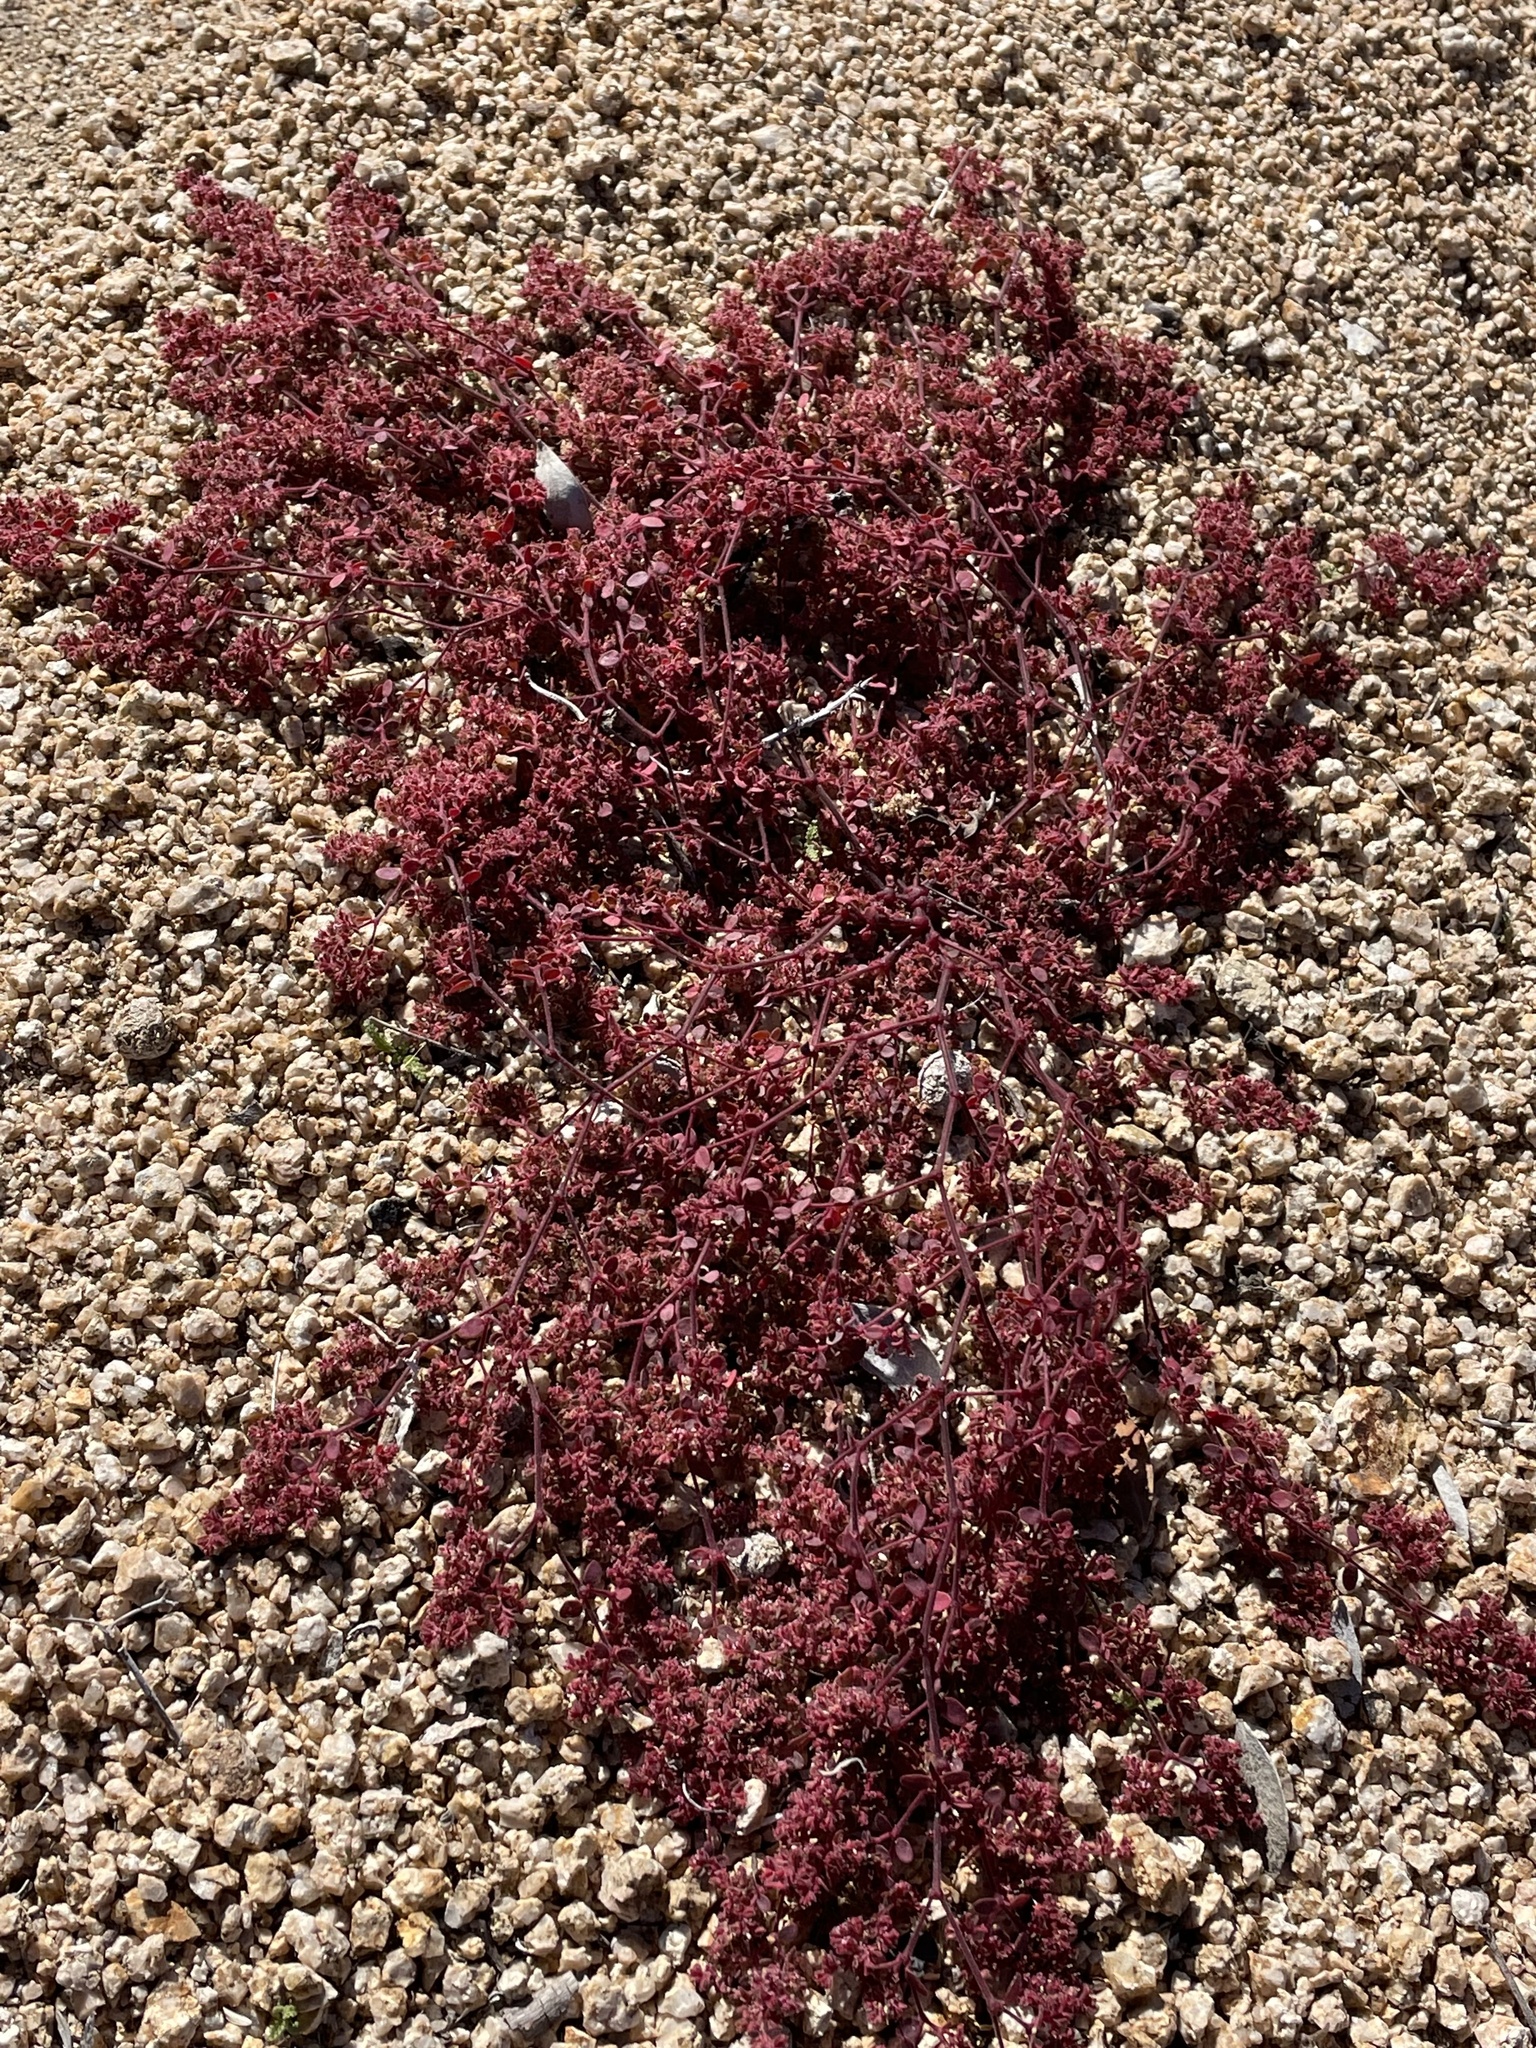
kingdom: Plantae
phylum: Tracheophyta
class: Magnoliopsida
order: Malpighiales
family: Euphorbiaceae
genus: Euphorbia
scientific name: Euphorbia setiloba
